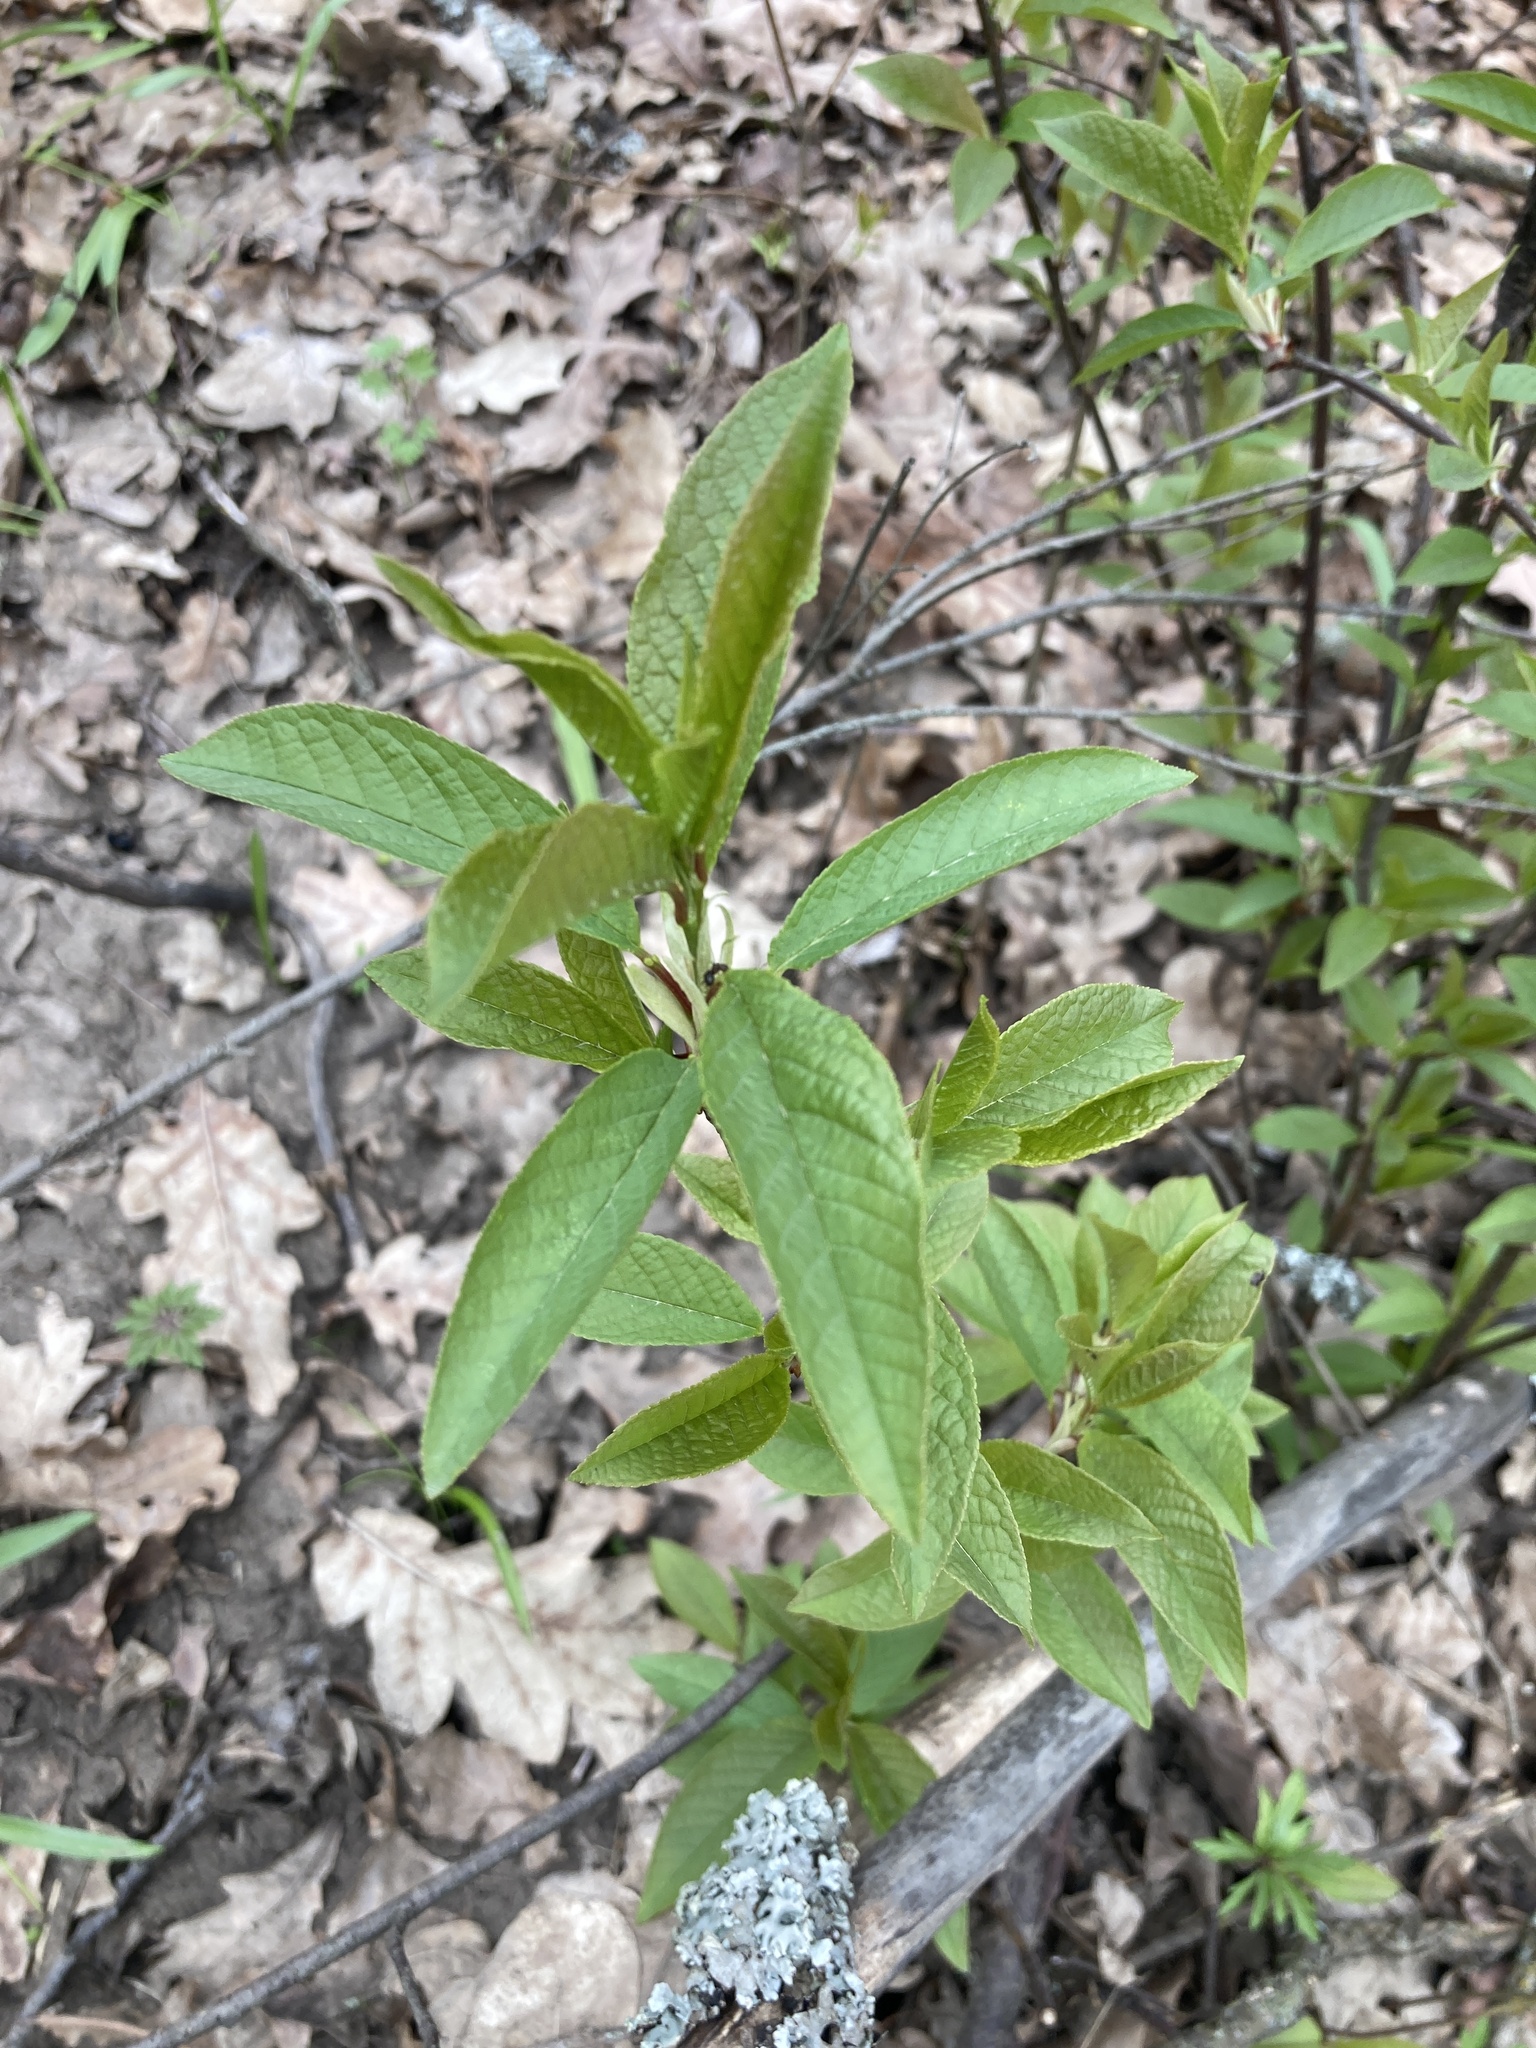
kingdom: Plantae
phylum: Tracheophyta
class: Magnoliopsida
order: Rosales
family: Rosaceae
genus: Prunus
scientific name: Prunus padus
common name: Bird cherry
